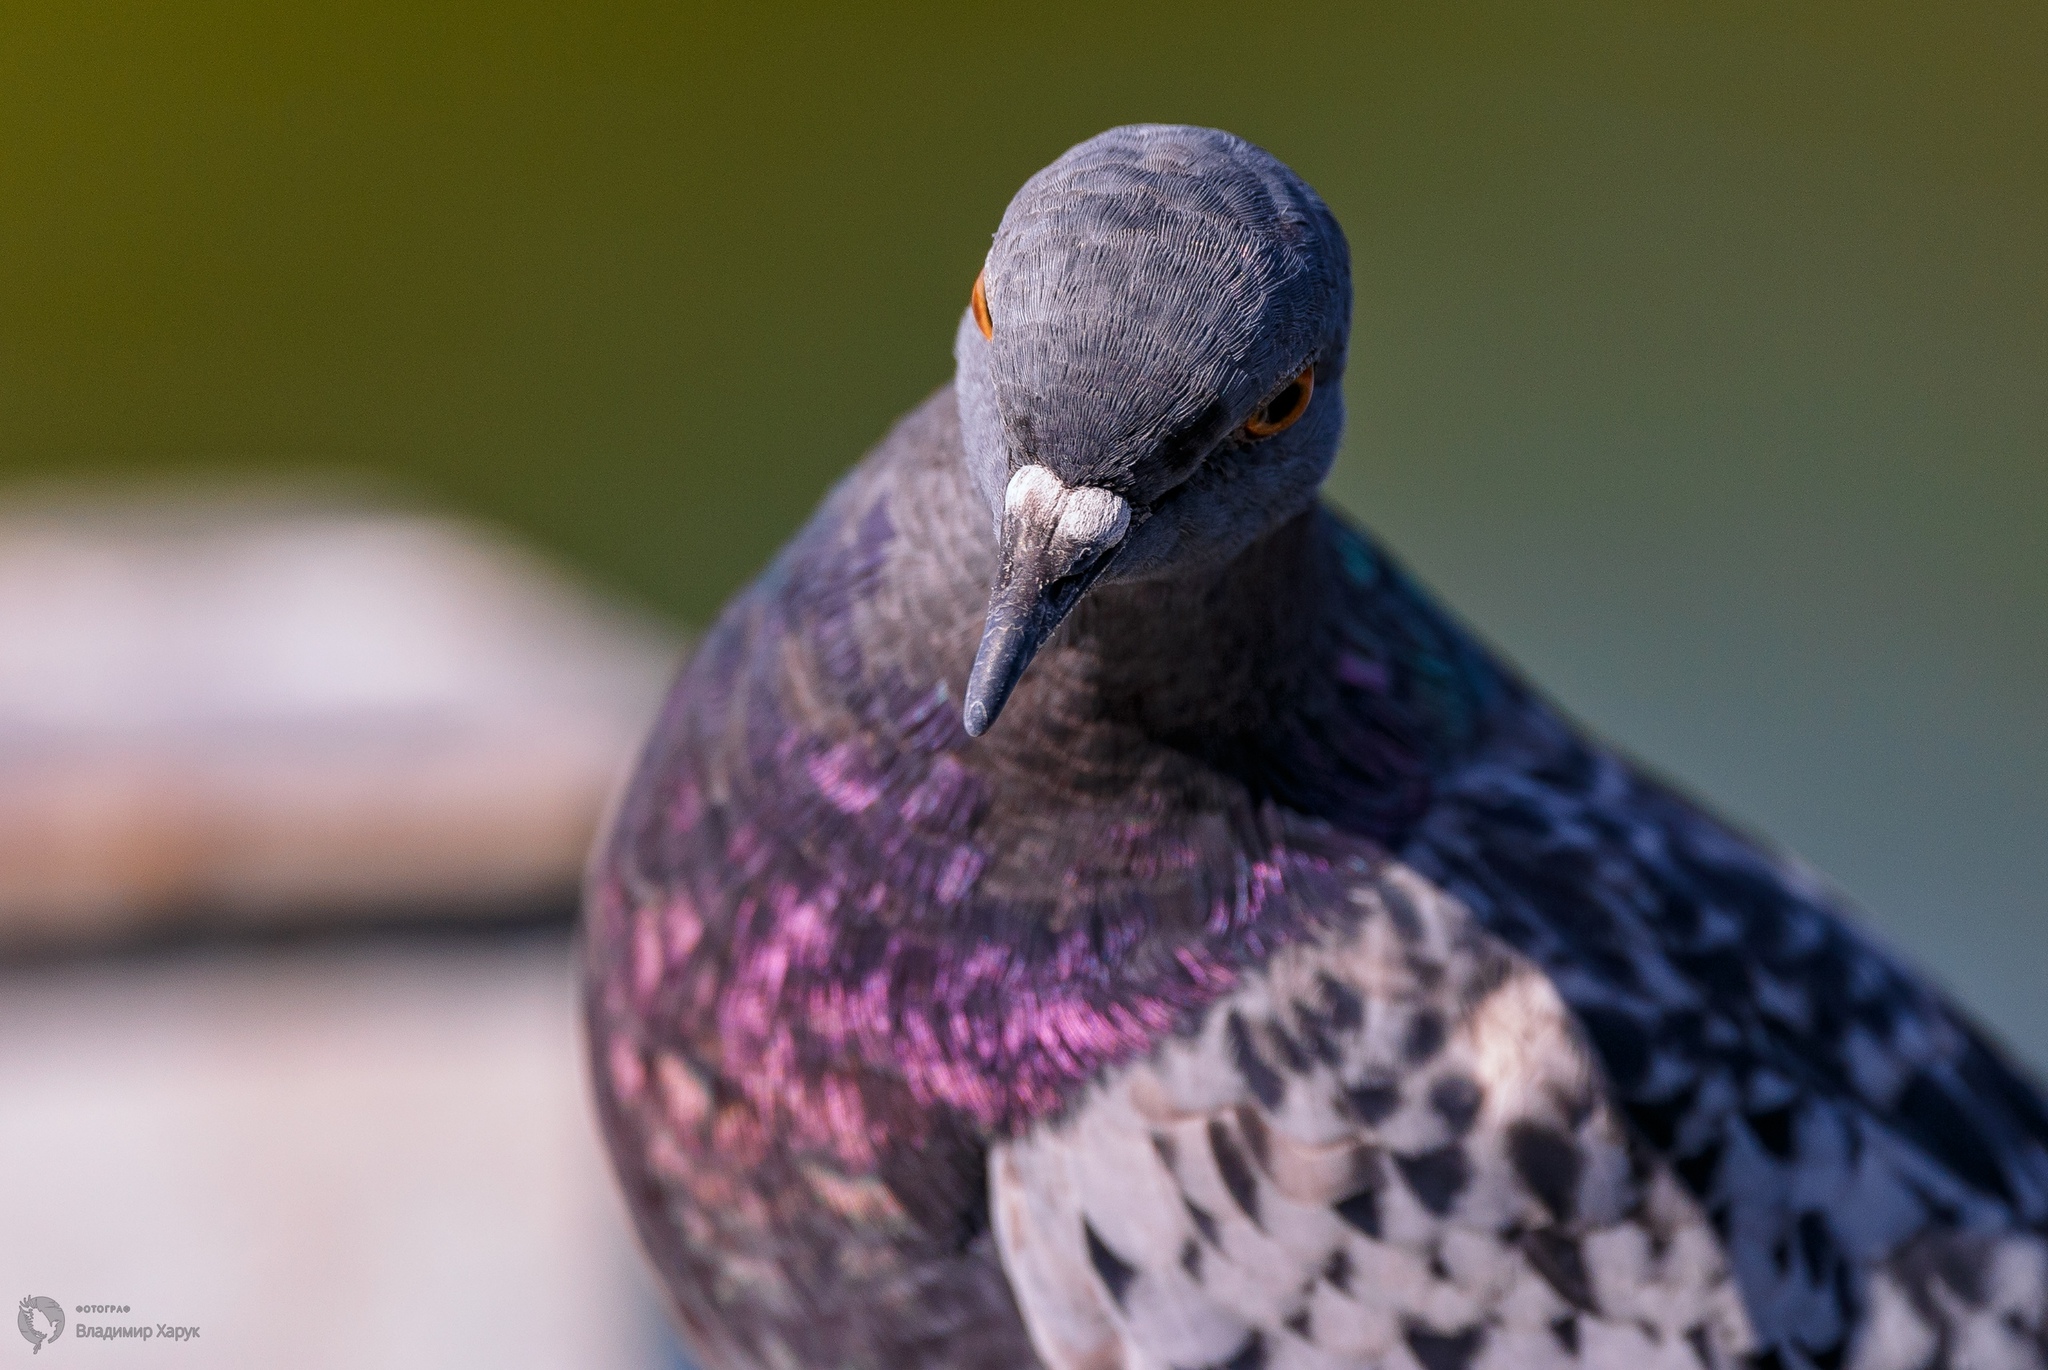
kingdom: Animalia
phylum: Chordata
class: Aves
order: Columbiformes
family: Columbidae
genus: Columba
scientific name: Columba livia
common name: Rock pigeon
